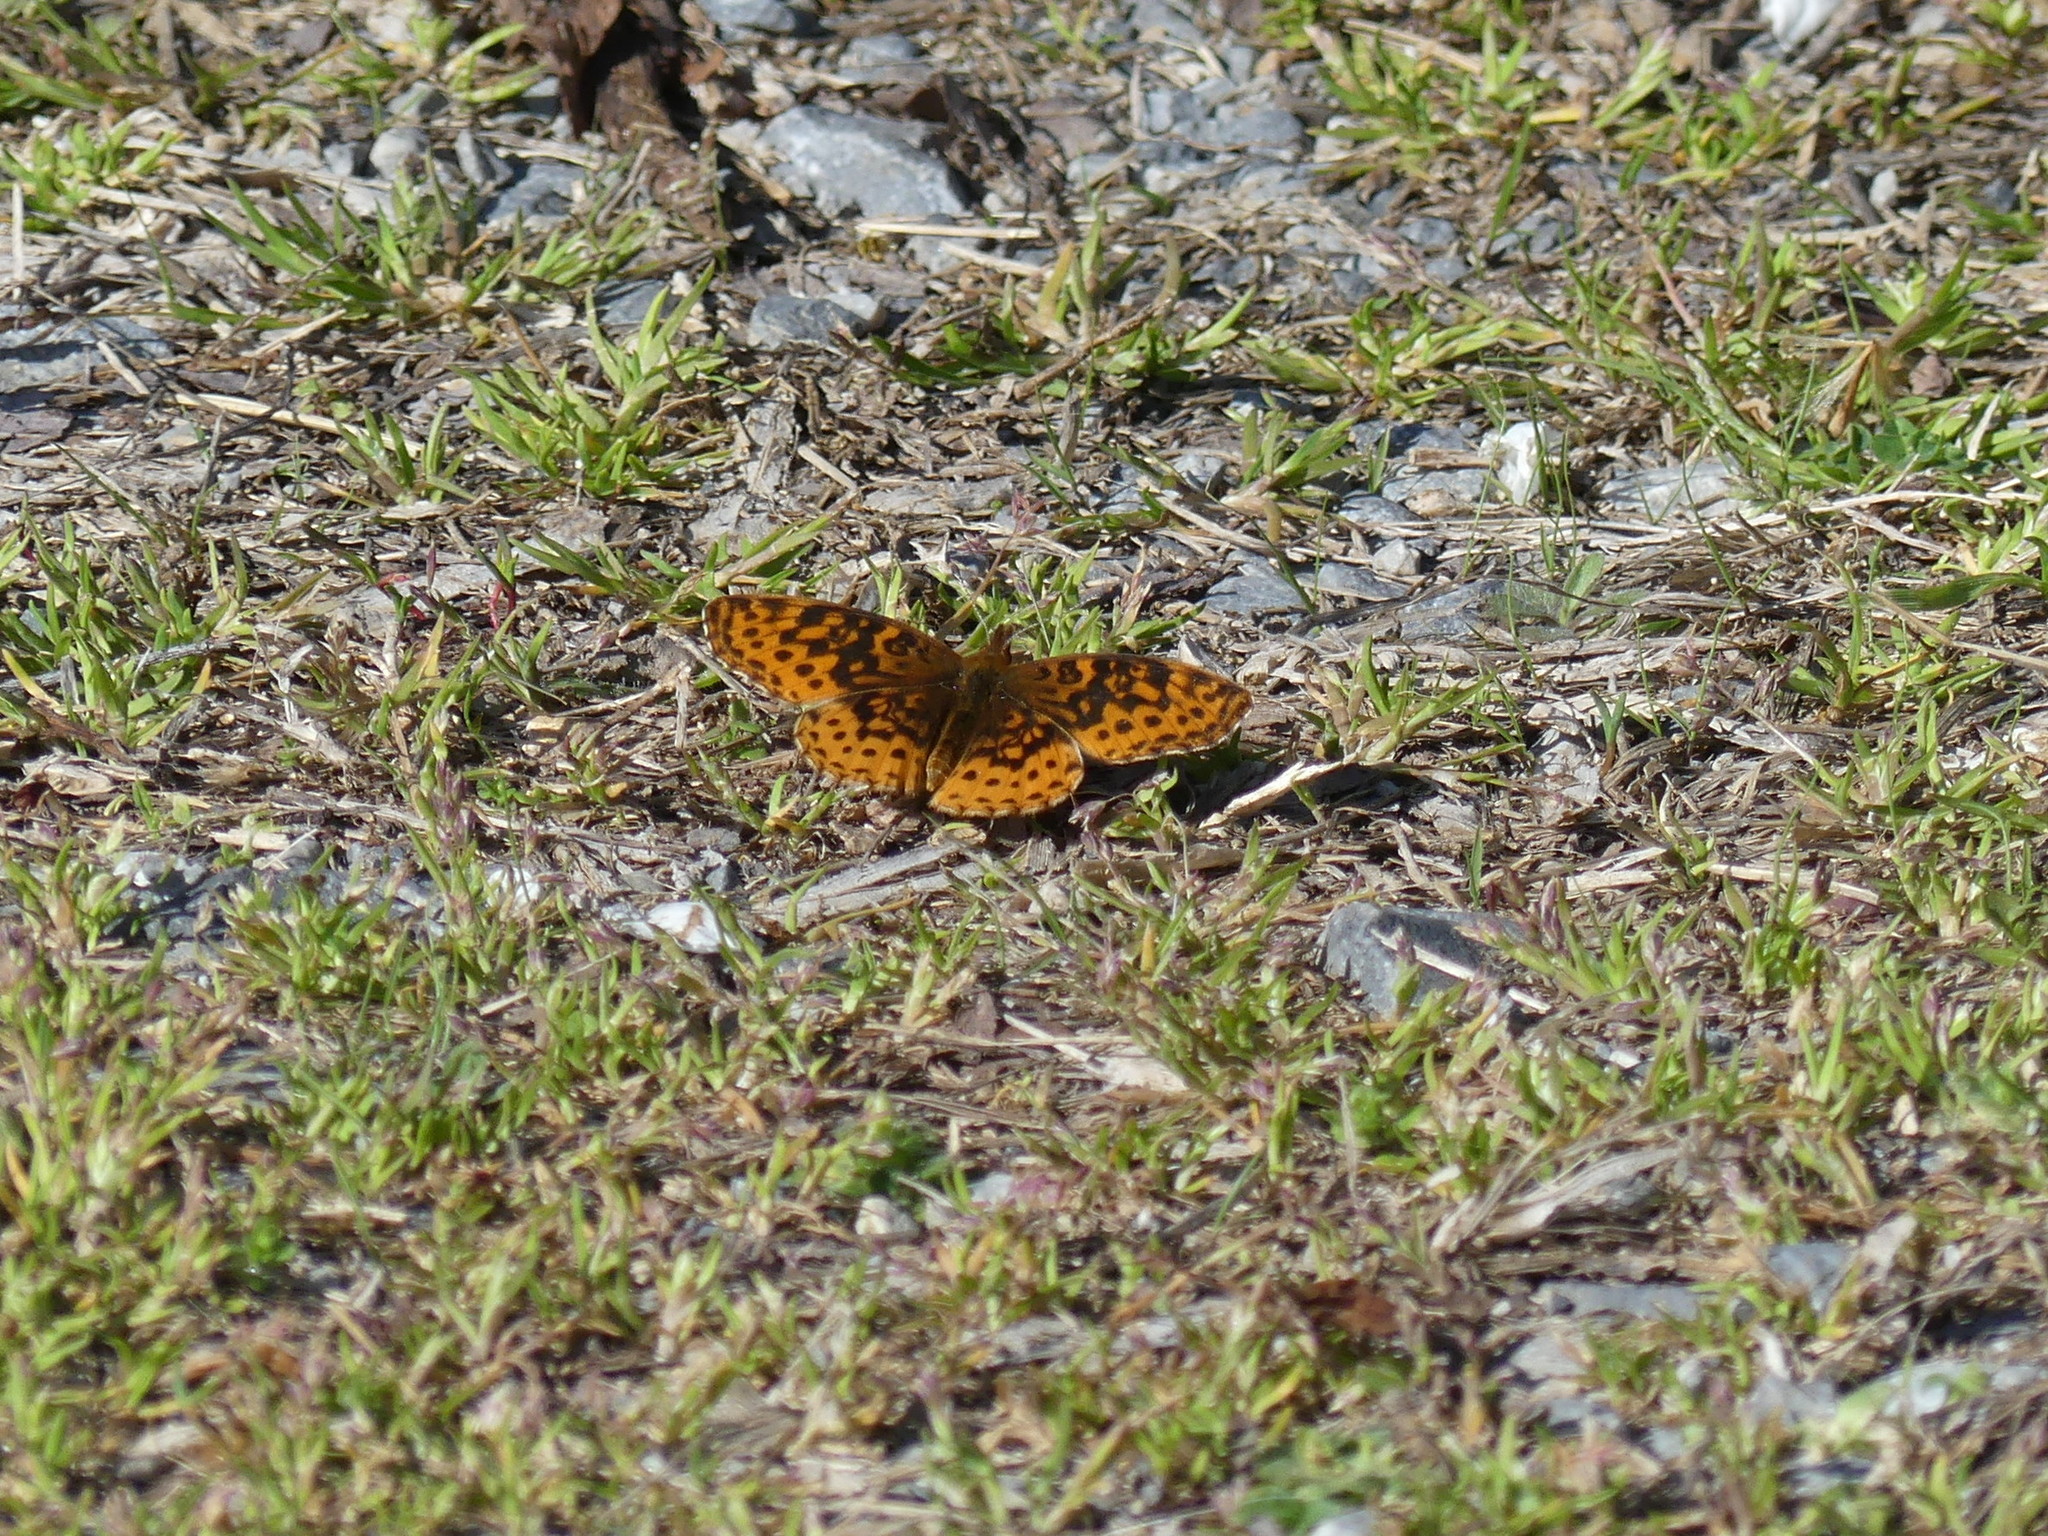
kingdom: Animalia
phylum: Arthropoda
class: Insecta
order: Lepidoptera
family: Nymphalidae
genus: Clossiana
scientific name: Clossiana toddi
